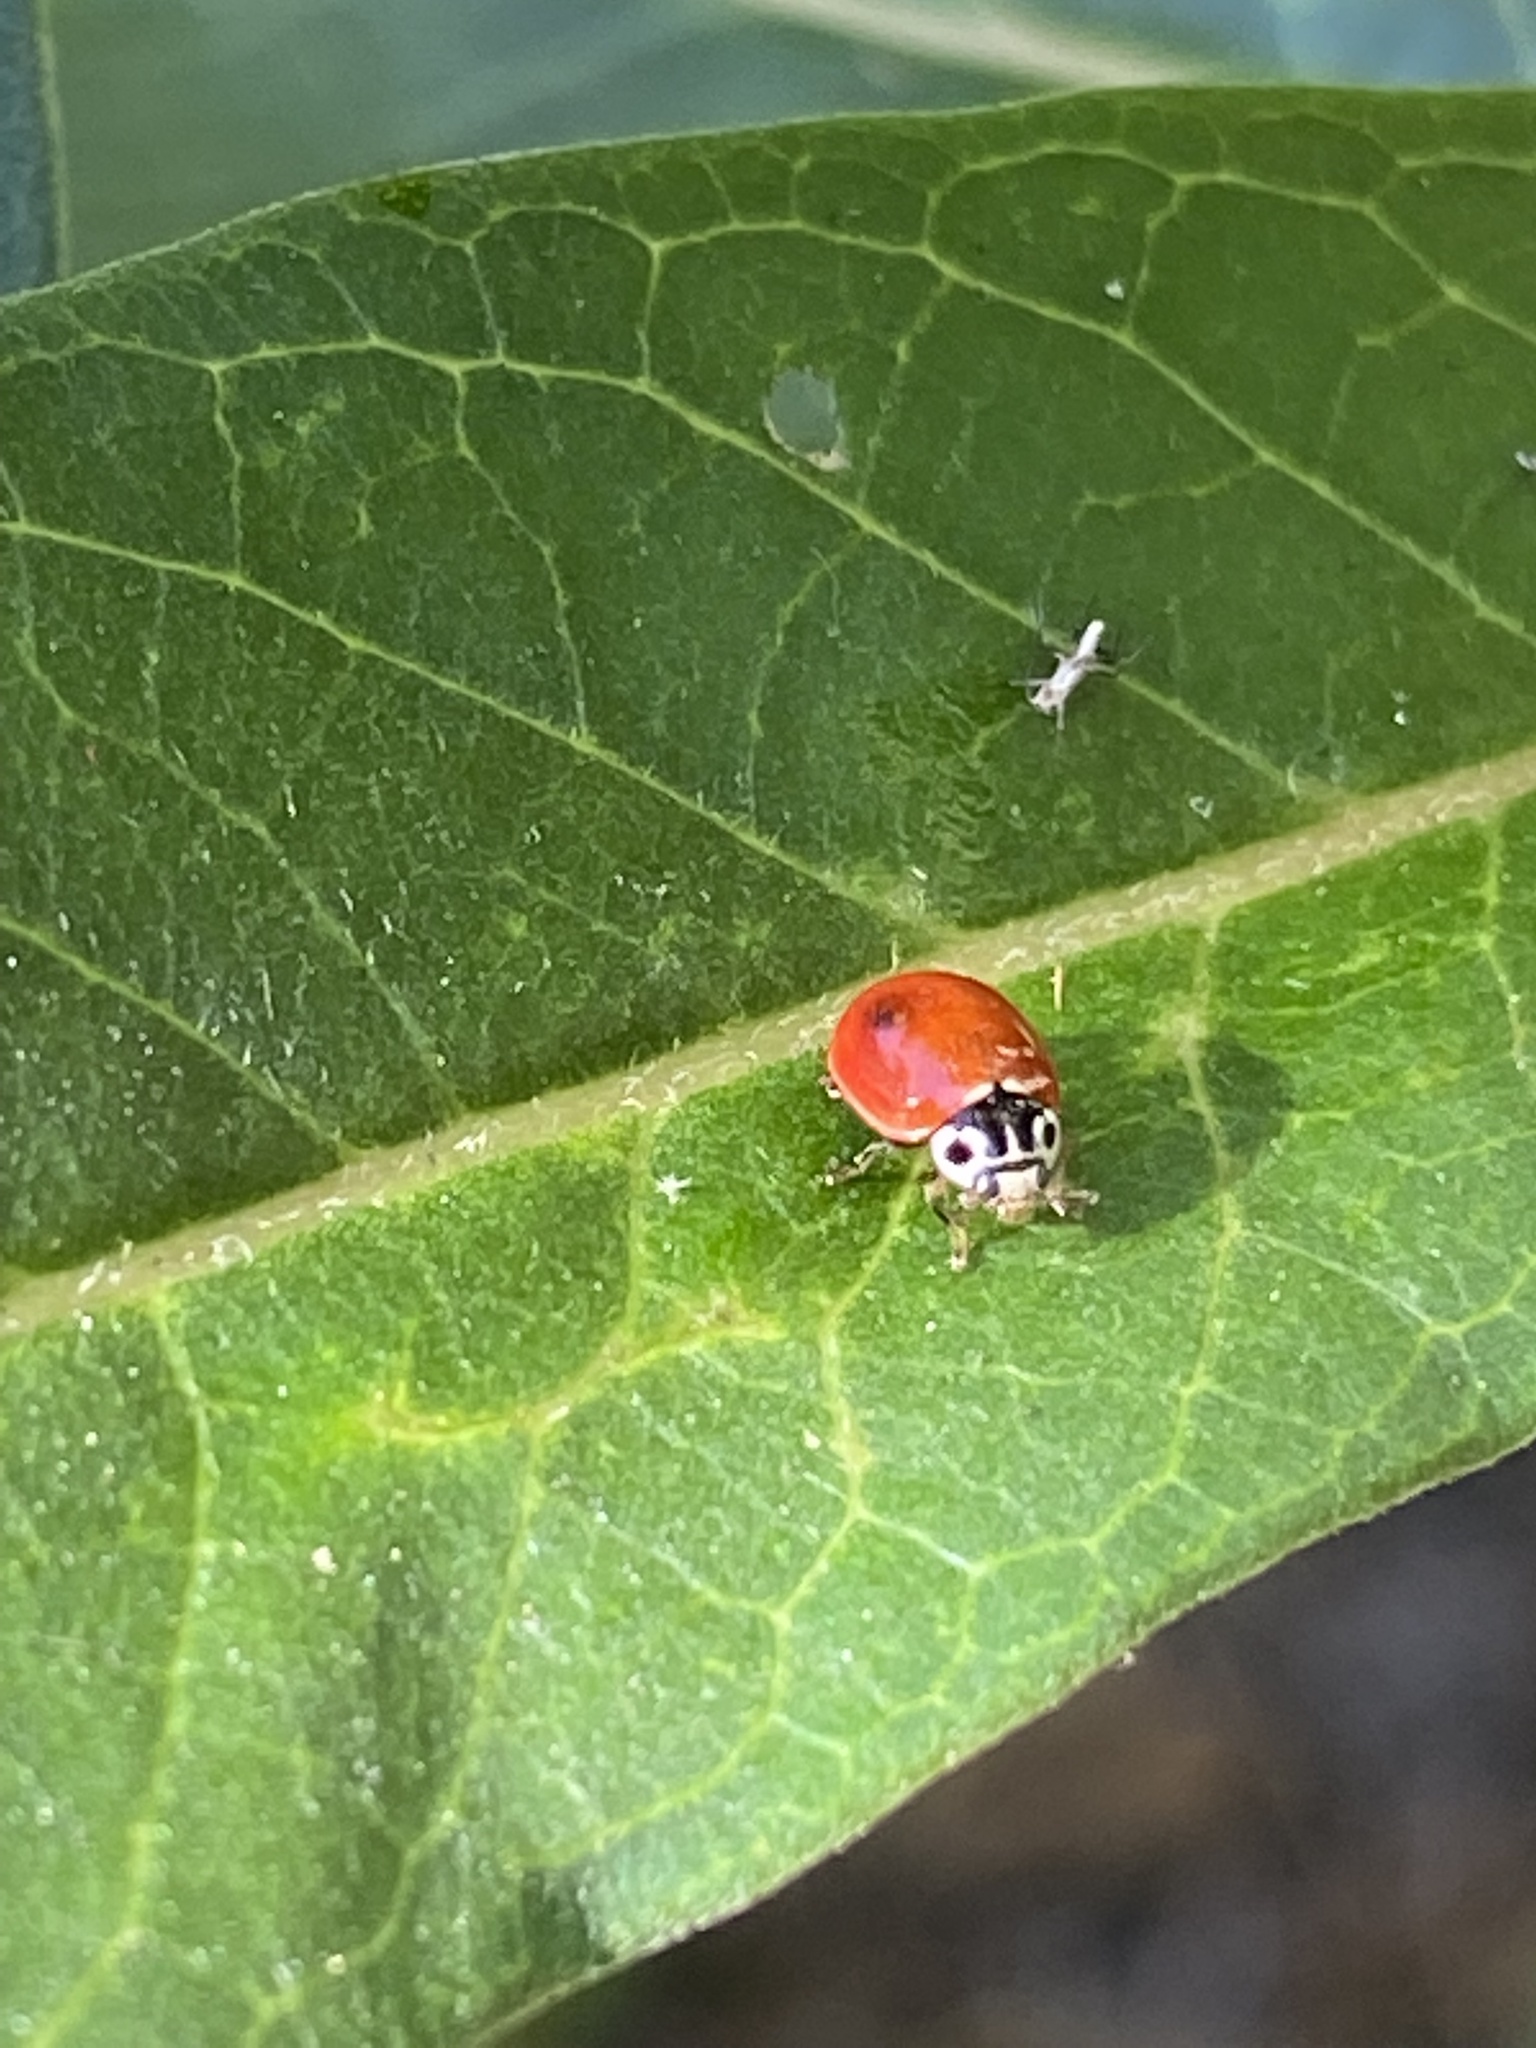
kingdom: Animalia
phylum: Arthropoda
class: Insecta
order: Coleoptera
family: Coccinellidae
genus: Cycloneda
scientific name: Cycloneda polita
